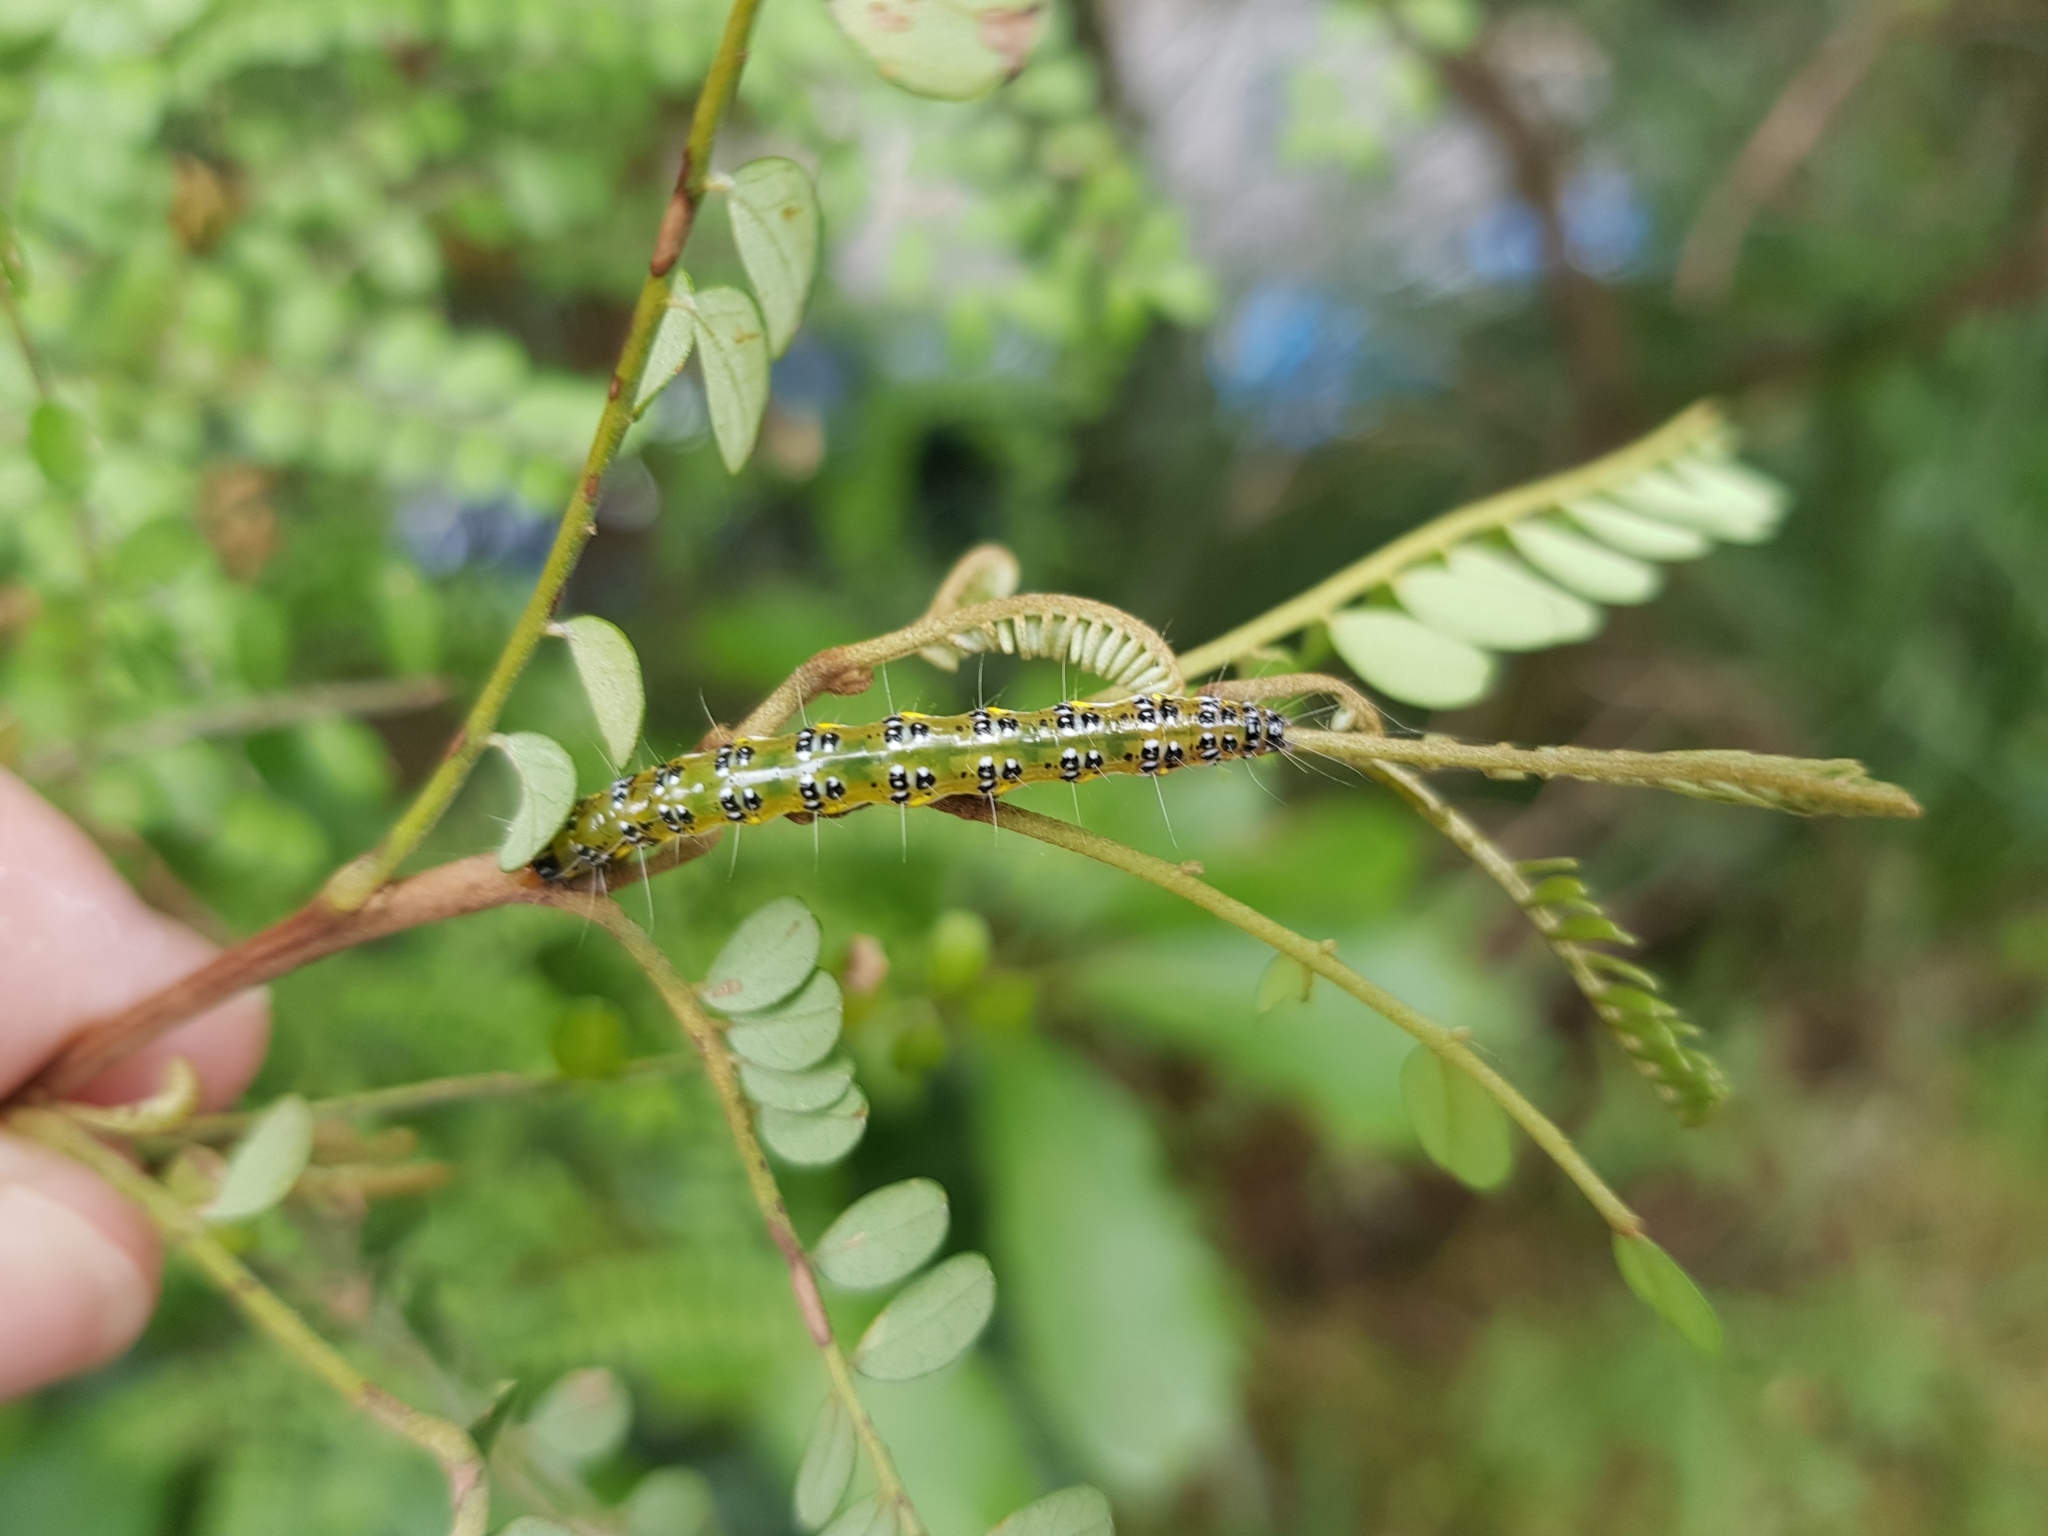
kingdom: Animalia
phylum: Arthropoda
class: Insecta
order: Lepidoptera
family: Crambidae
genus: Uresiphita
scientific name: Uresiphita
